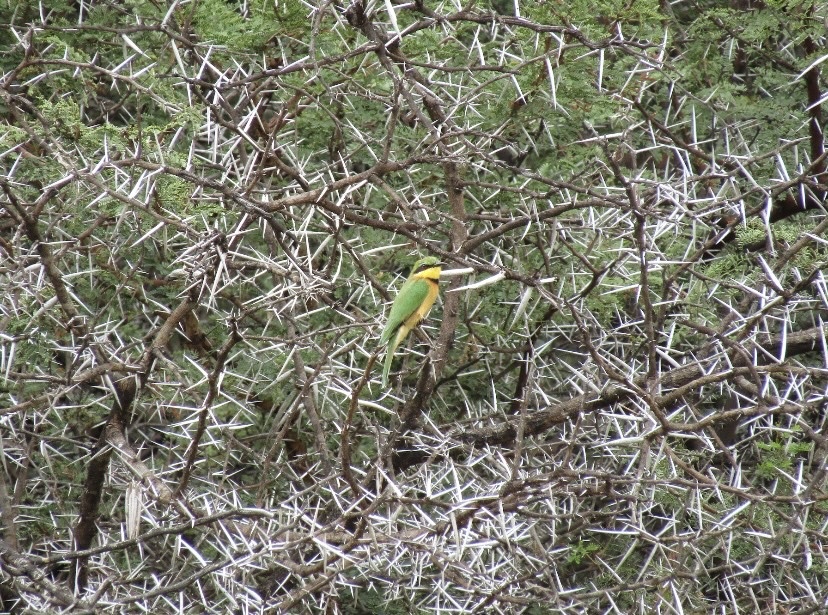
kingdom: Animalia
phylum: Chordata
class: Aves
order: Coraciiformes
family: Meropidae
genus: Merops
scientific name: Merops pusillus
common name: Little bee-eater
